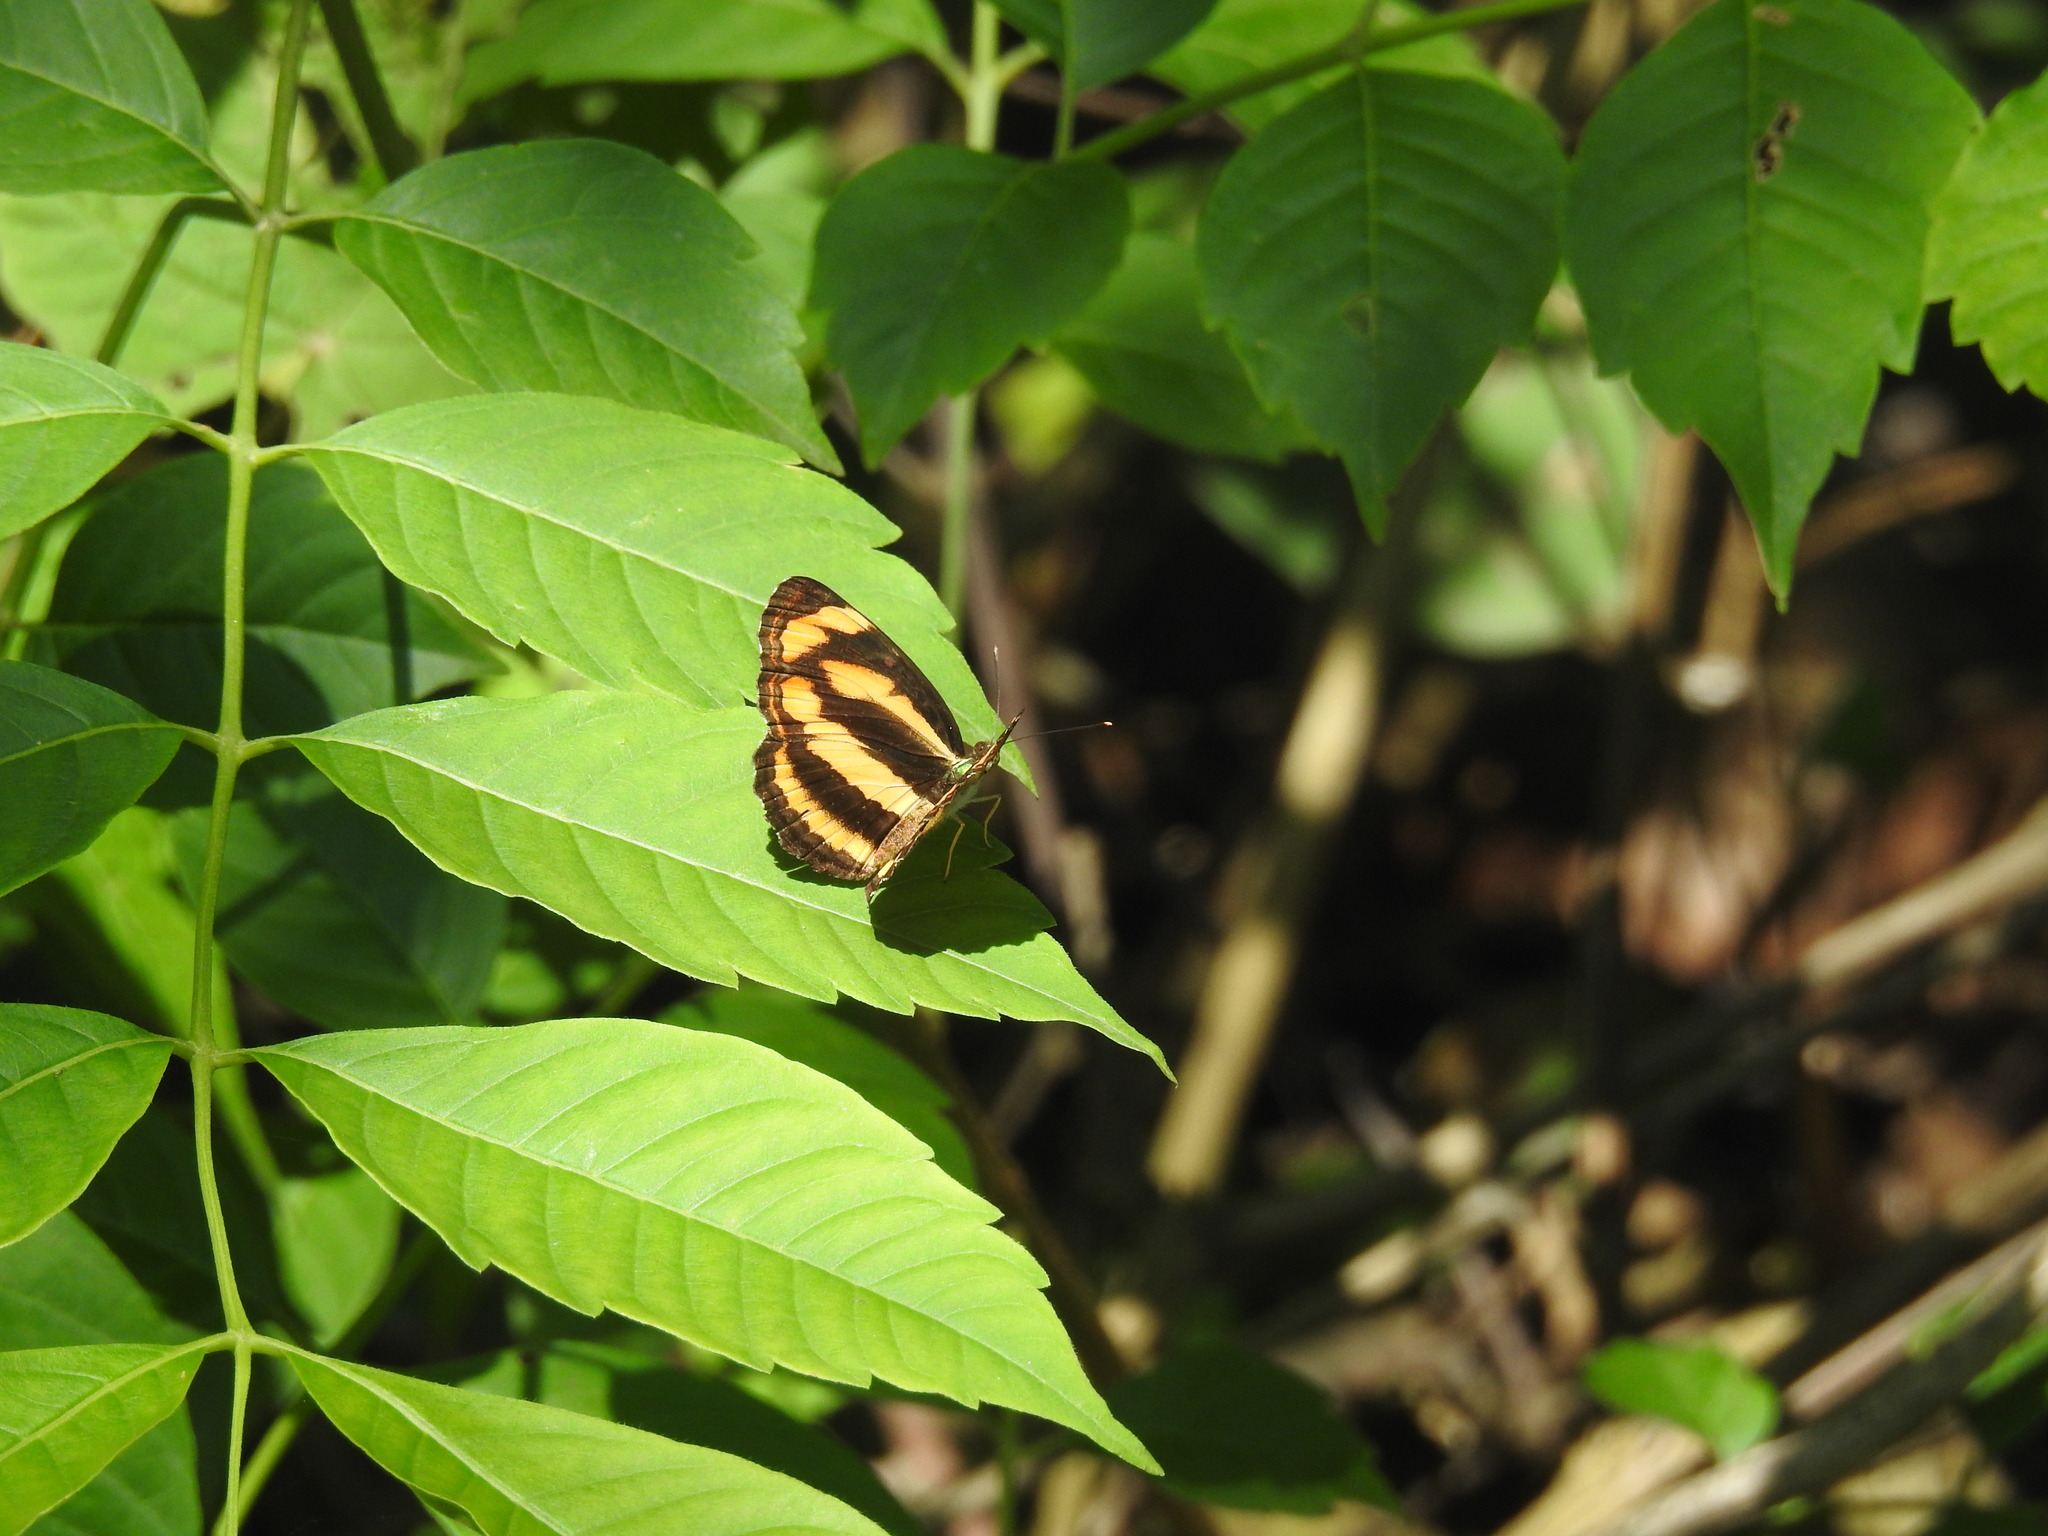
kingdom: Animalia
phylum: Arthropoda
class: Insecta
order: Lepidoptera
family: Nymphalidae
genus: Pantoporia
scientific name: Pantoporia hordonia
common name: Common lascar
